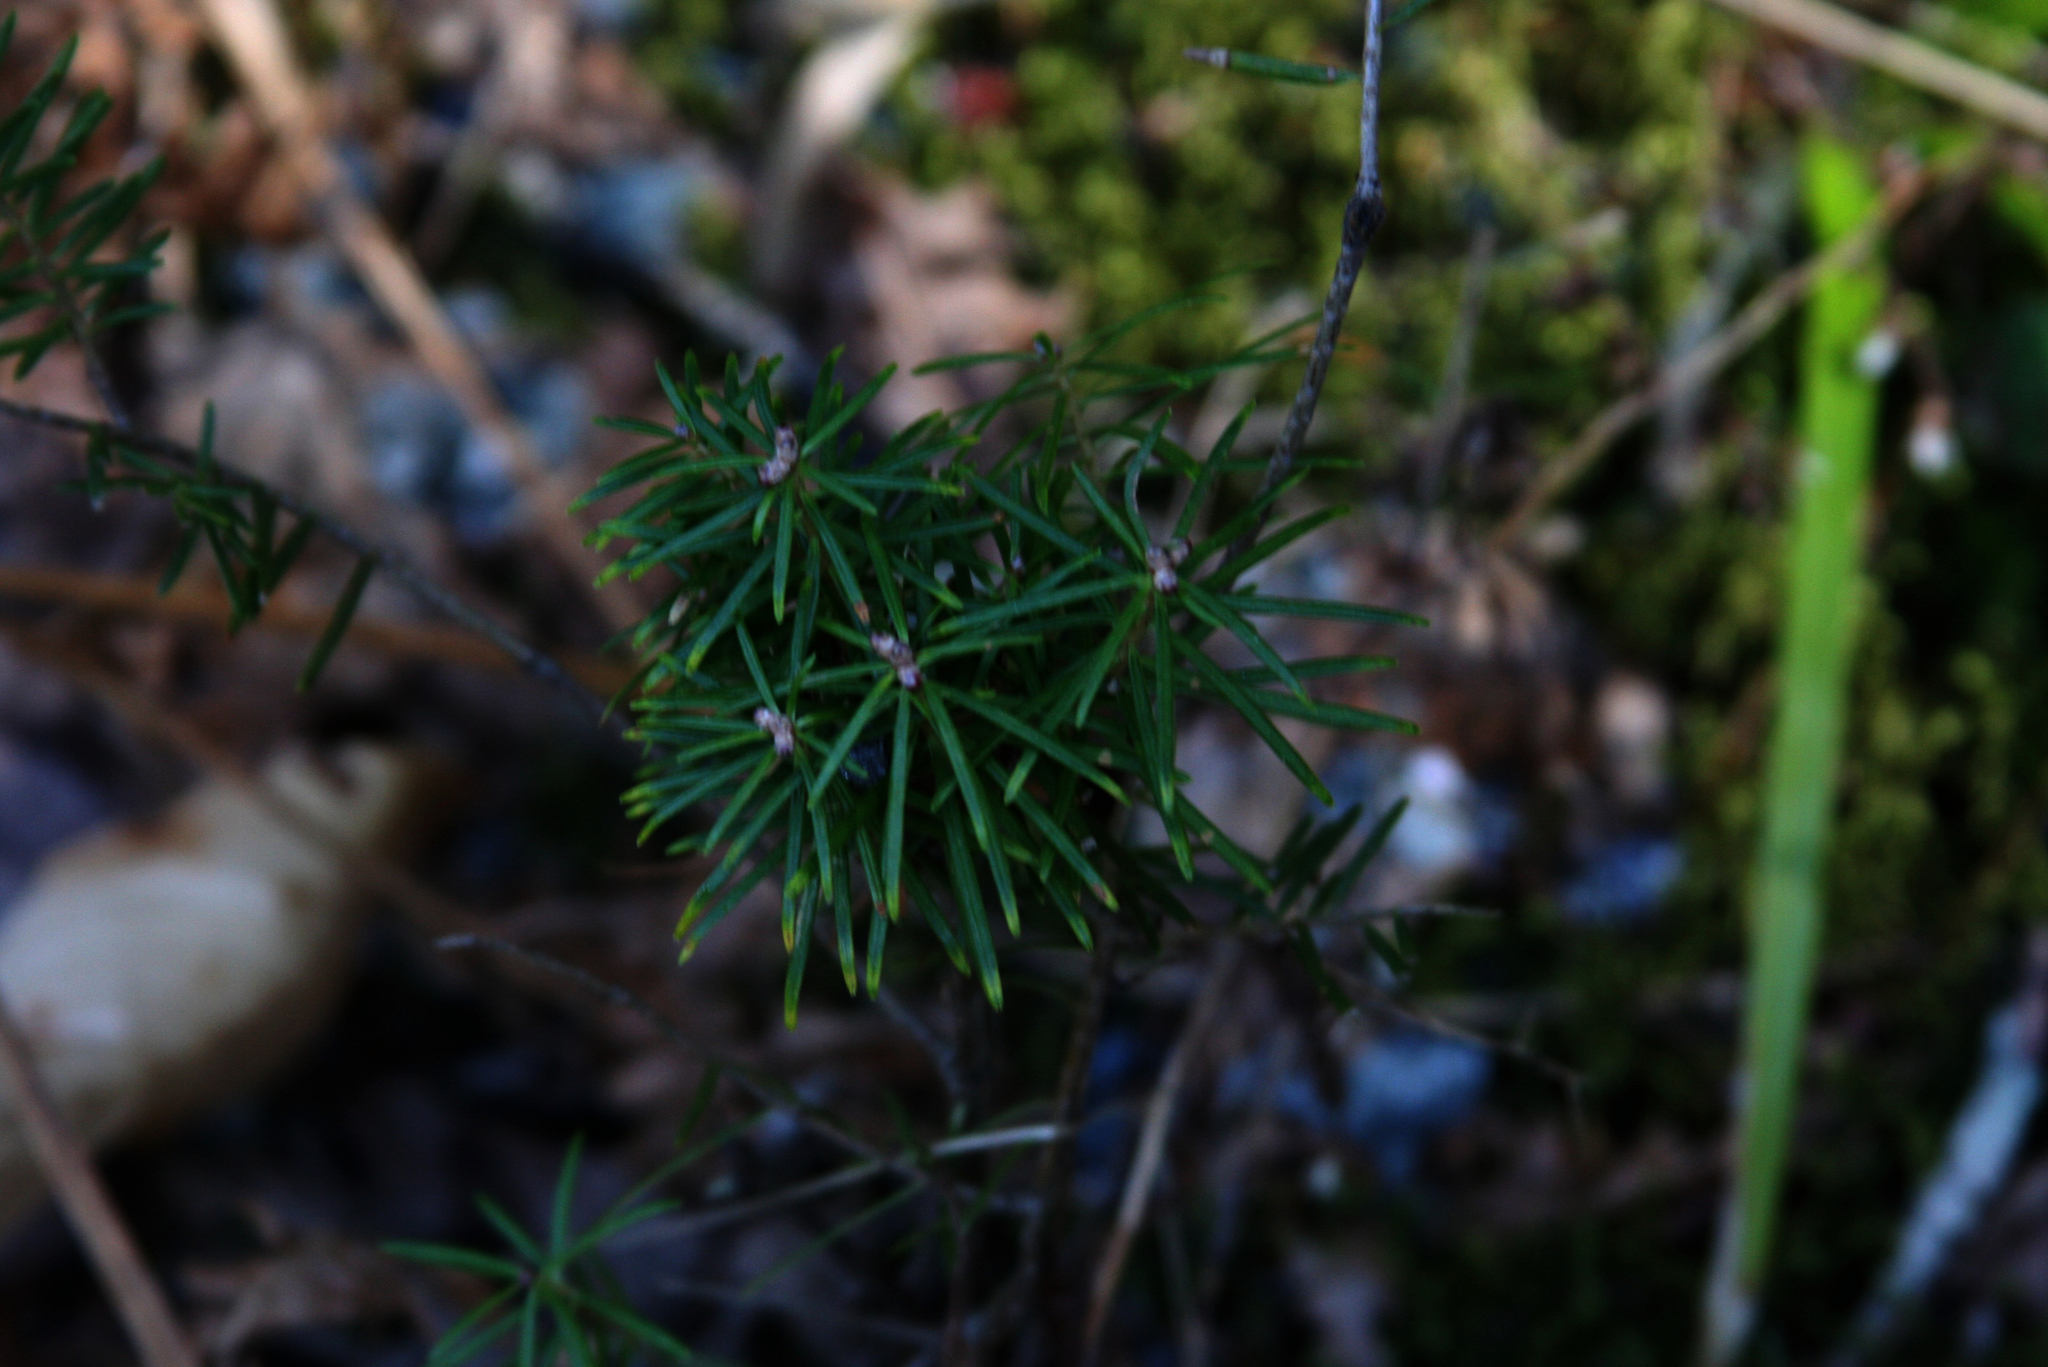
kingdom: Plantae
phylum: Tracheophyta
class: Pinopsida
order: Pinales
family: Pinaceae
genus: Abies
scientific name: Abies balsamea
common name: Balsam fir
